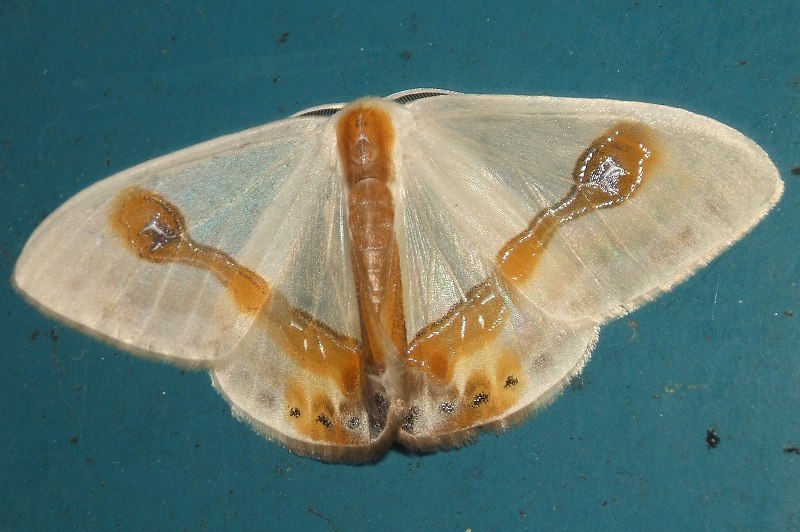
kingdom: Animalia
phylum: Arthropoda
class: Insecta
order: Lepidoptera
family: Drepanidae
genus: Macrocilix
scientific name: Macrocilix mysticata
